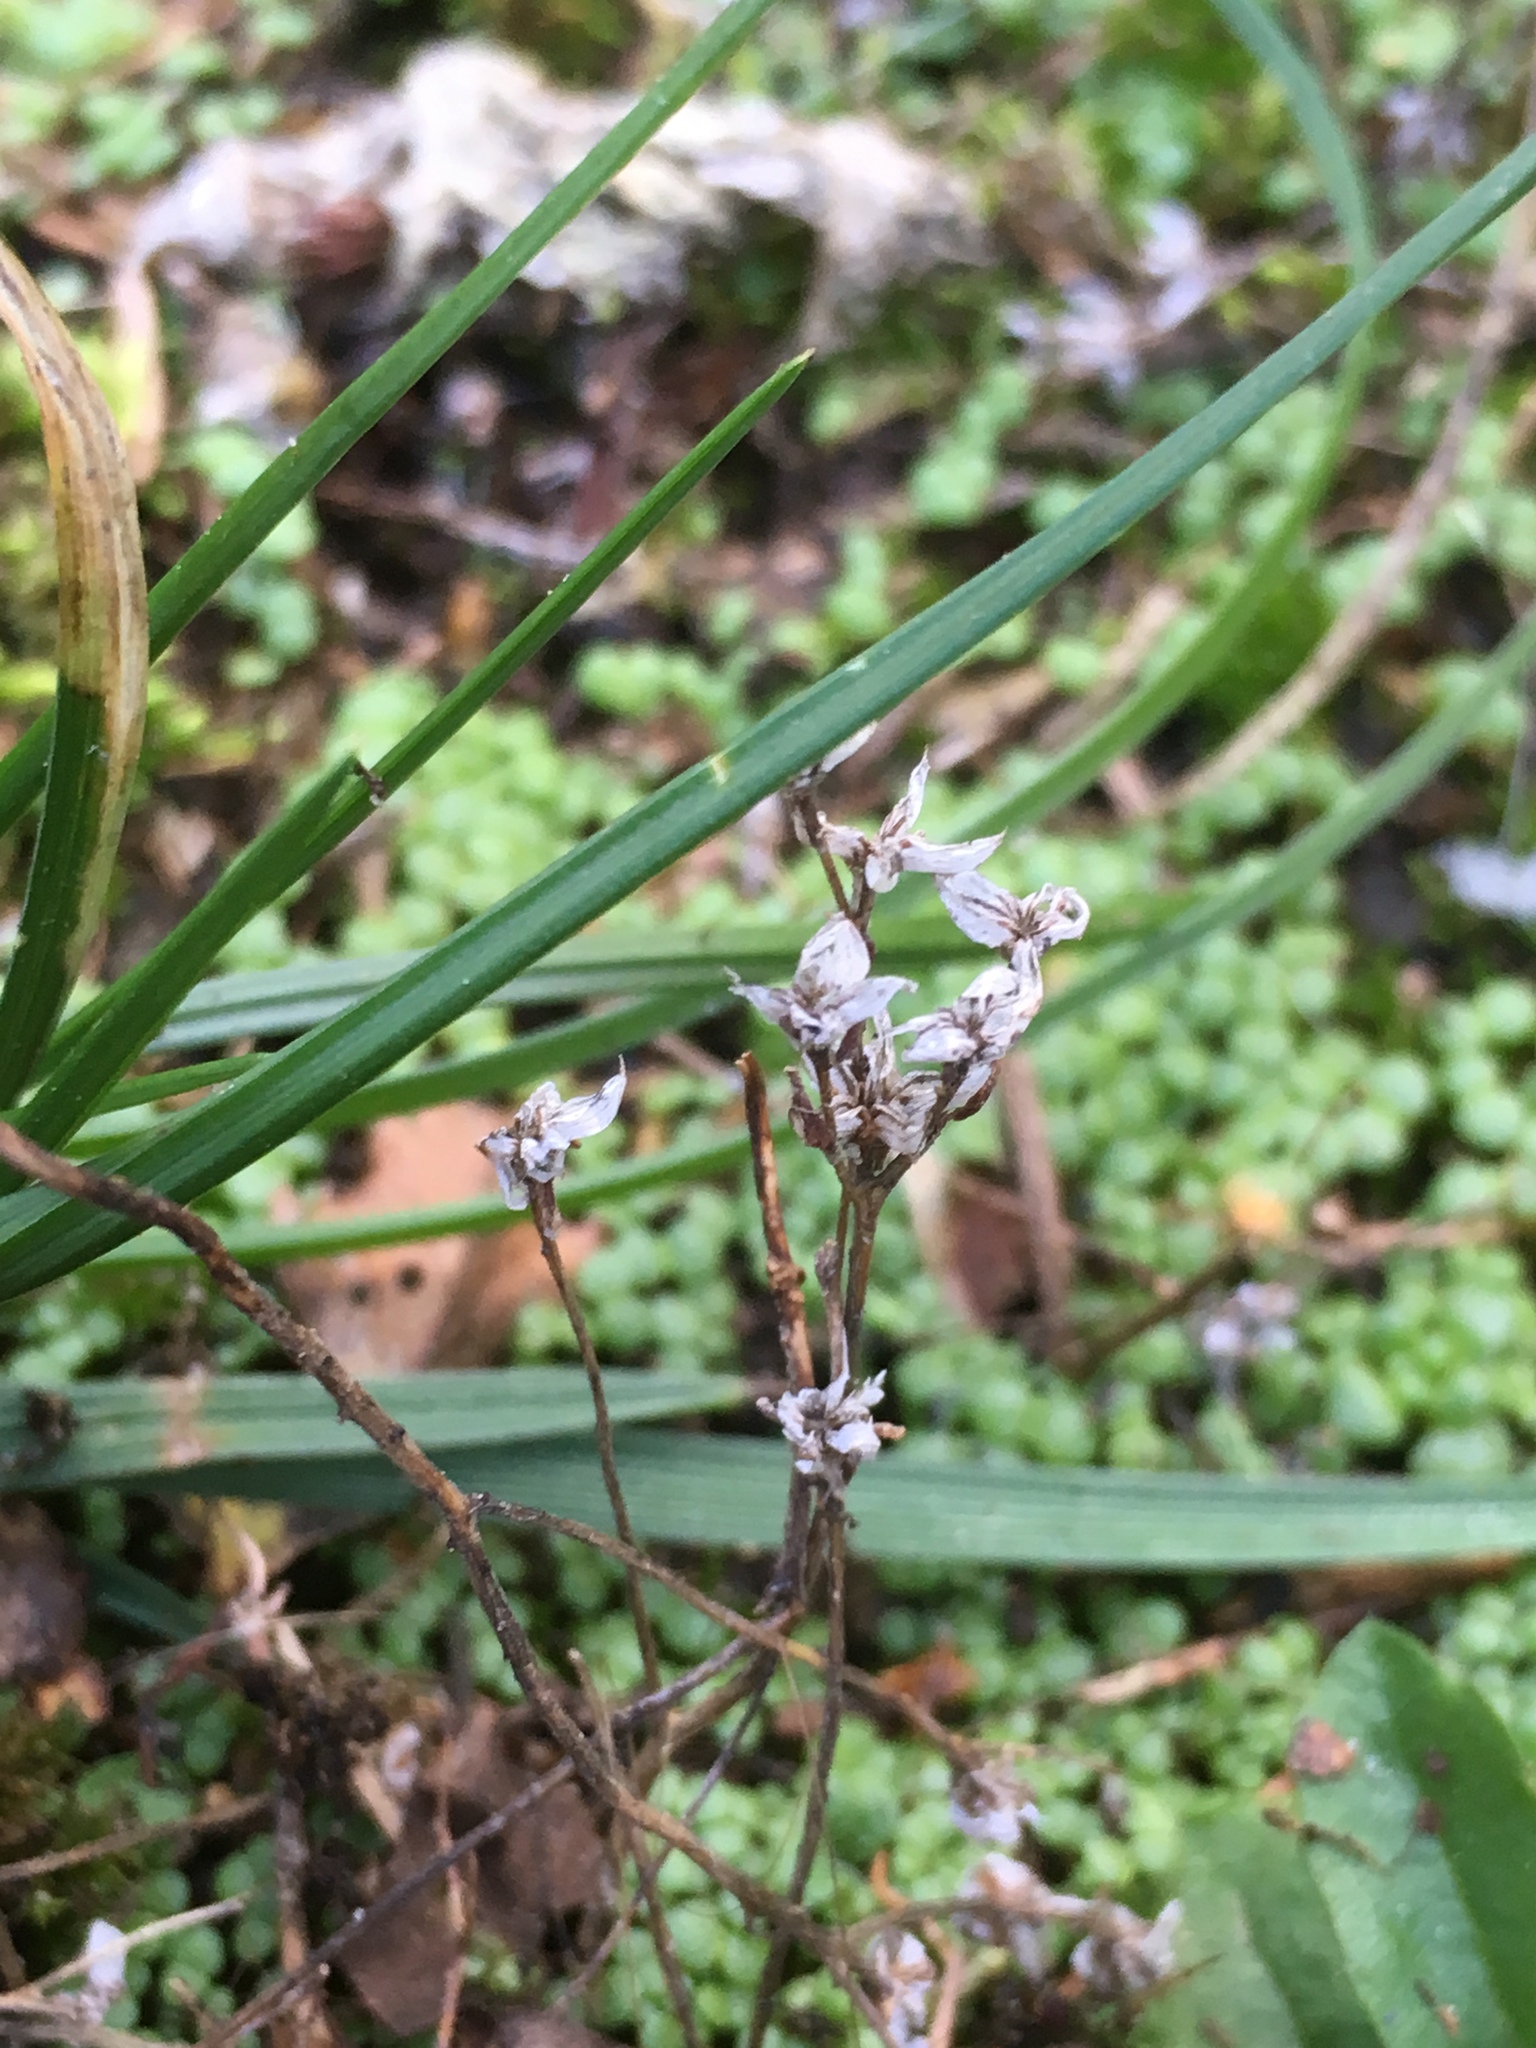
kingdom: Plantae
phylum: Tracheophyta
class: Magnoliopsida
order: Saxifragales
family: Crassulaceae
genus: Sedum
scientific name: Sedum annuum
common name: Annual stonecrop
